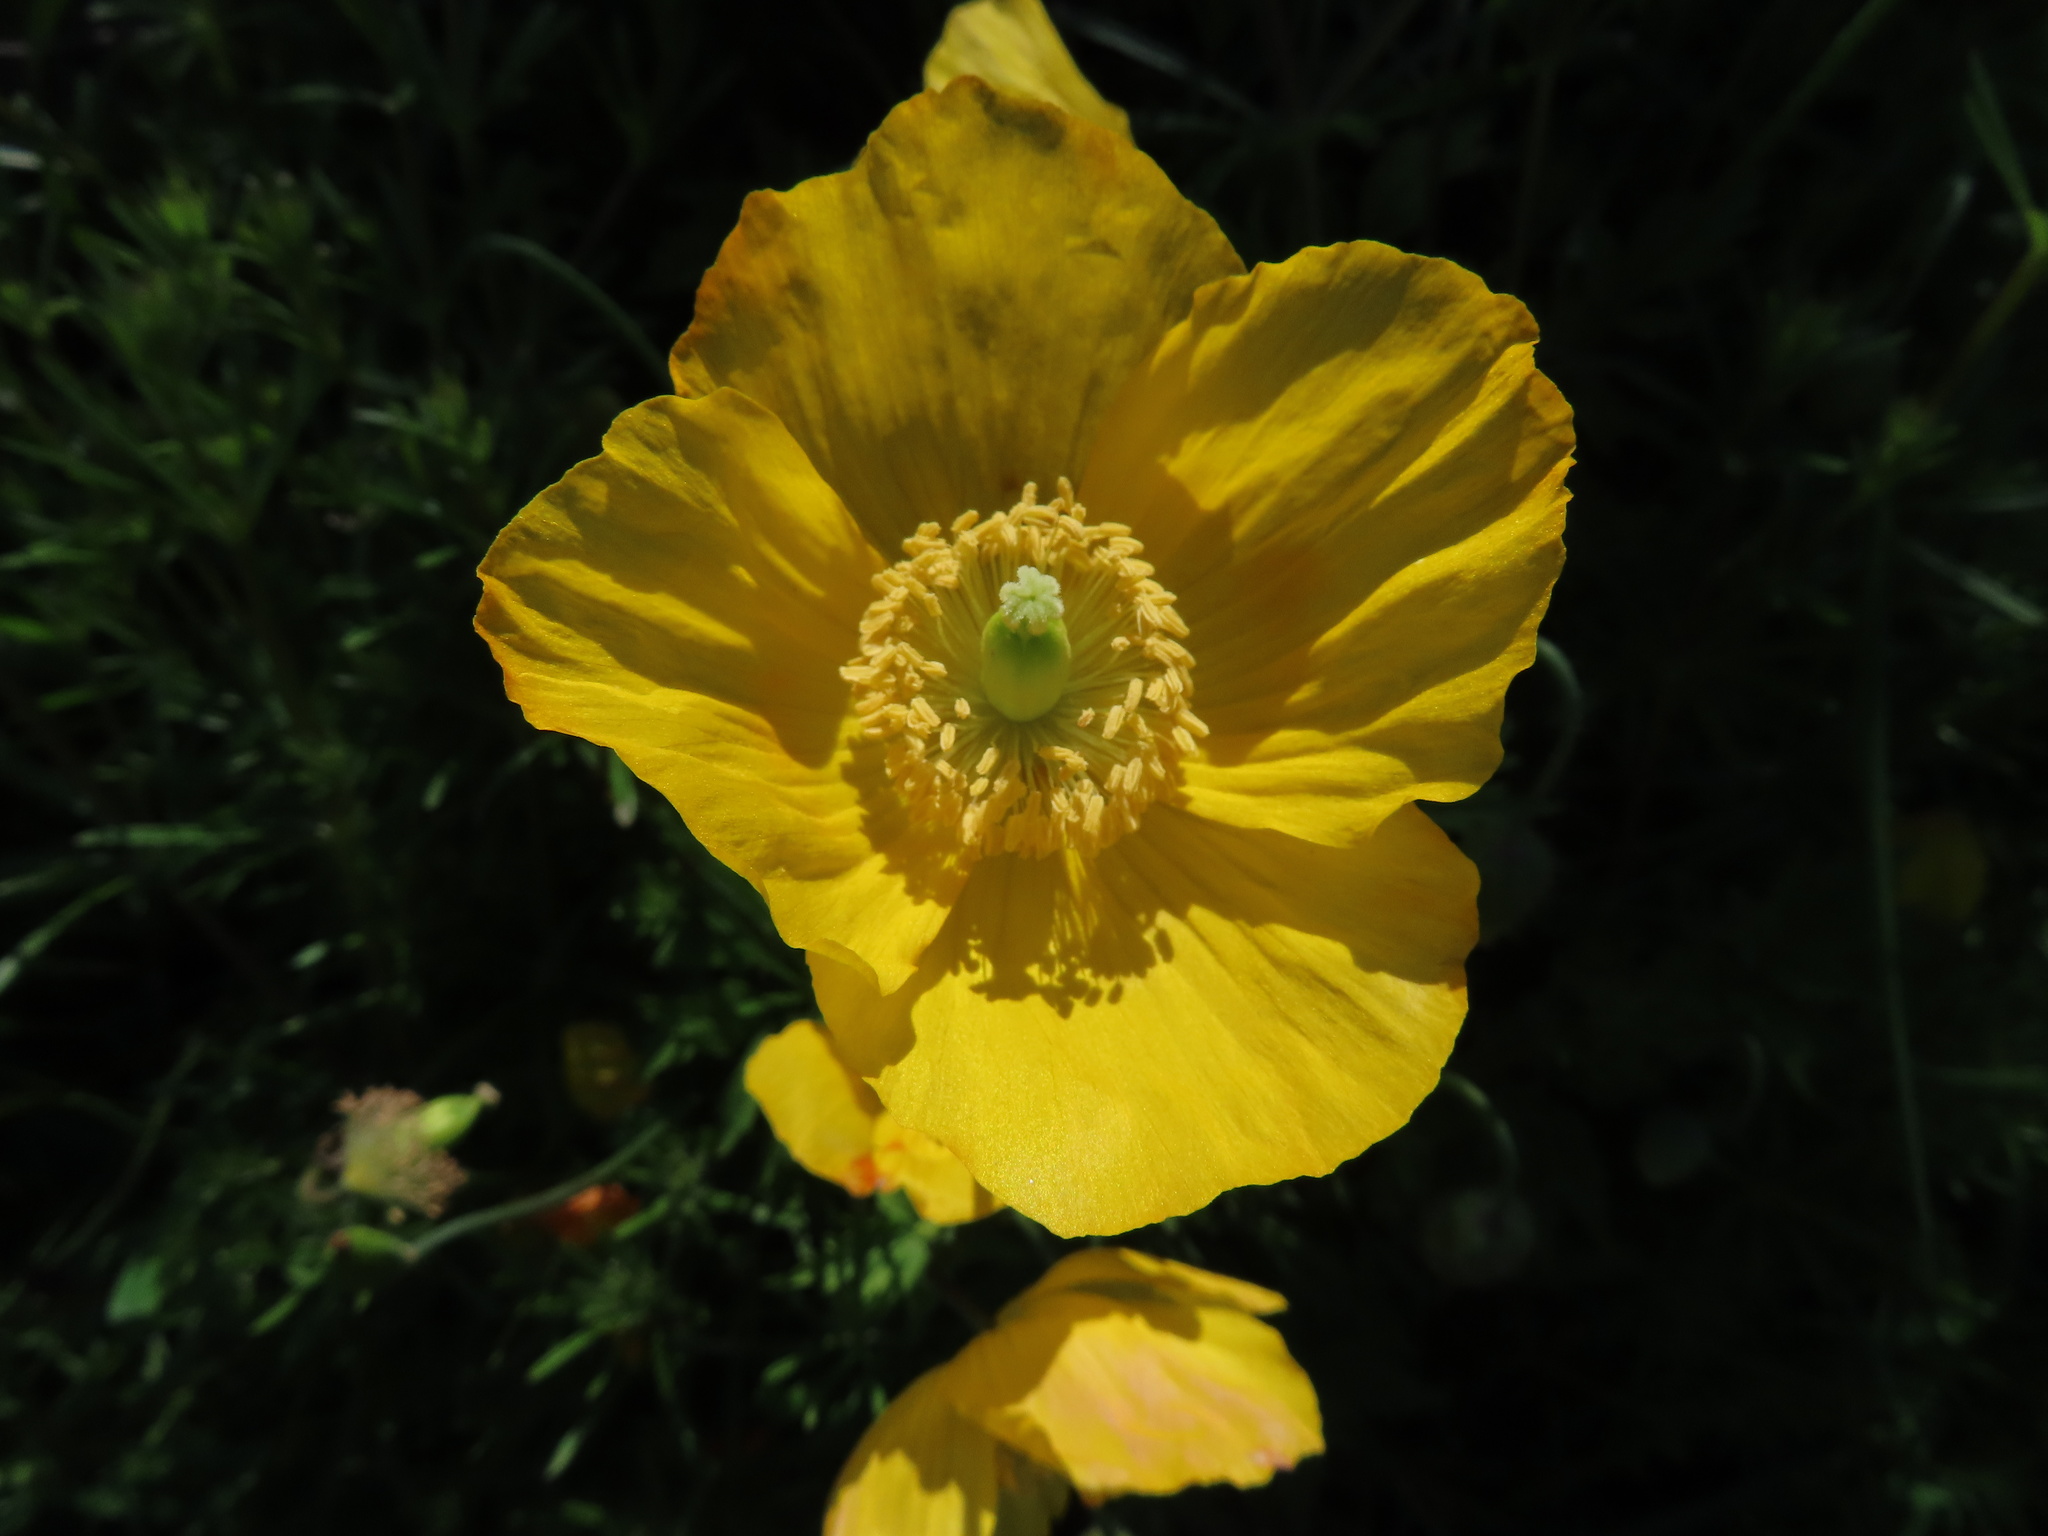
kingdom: Plantae
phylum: Tracheophyta
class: Magnoliopsida
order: Ranunculales
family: Papaveraceae
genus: Papaver
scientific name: Papaver cambricum
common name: Poppy
